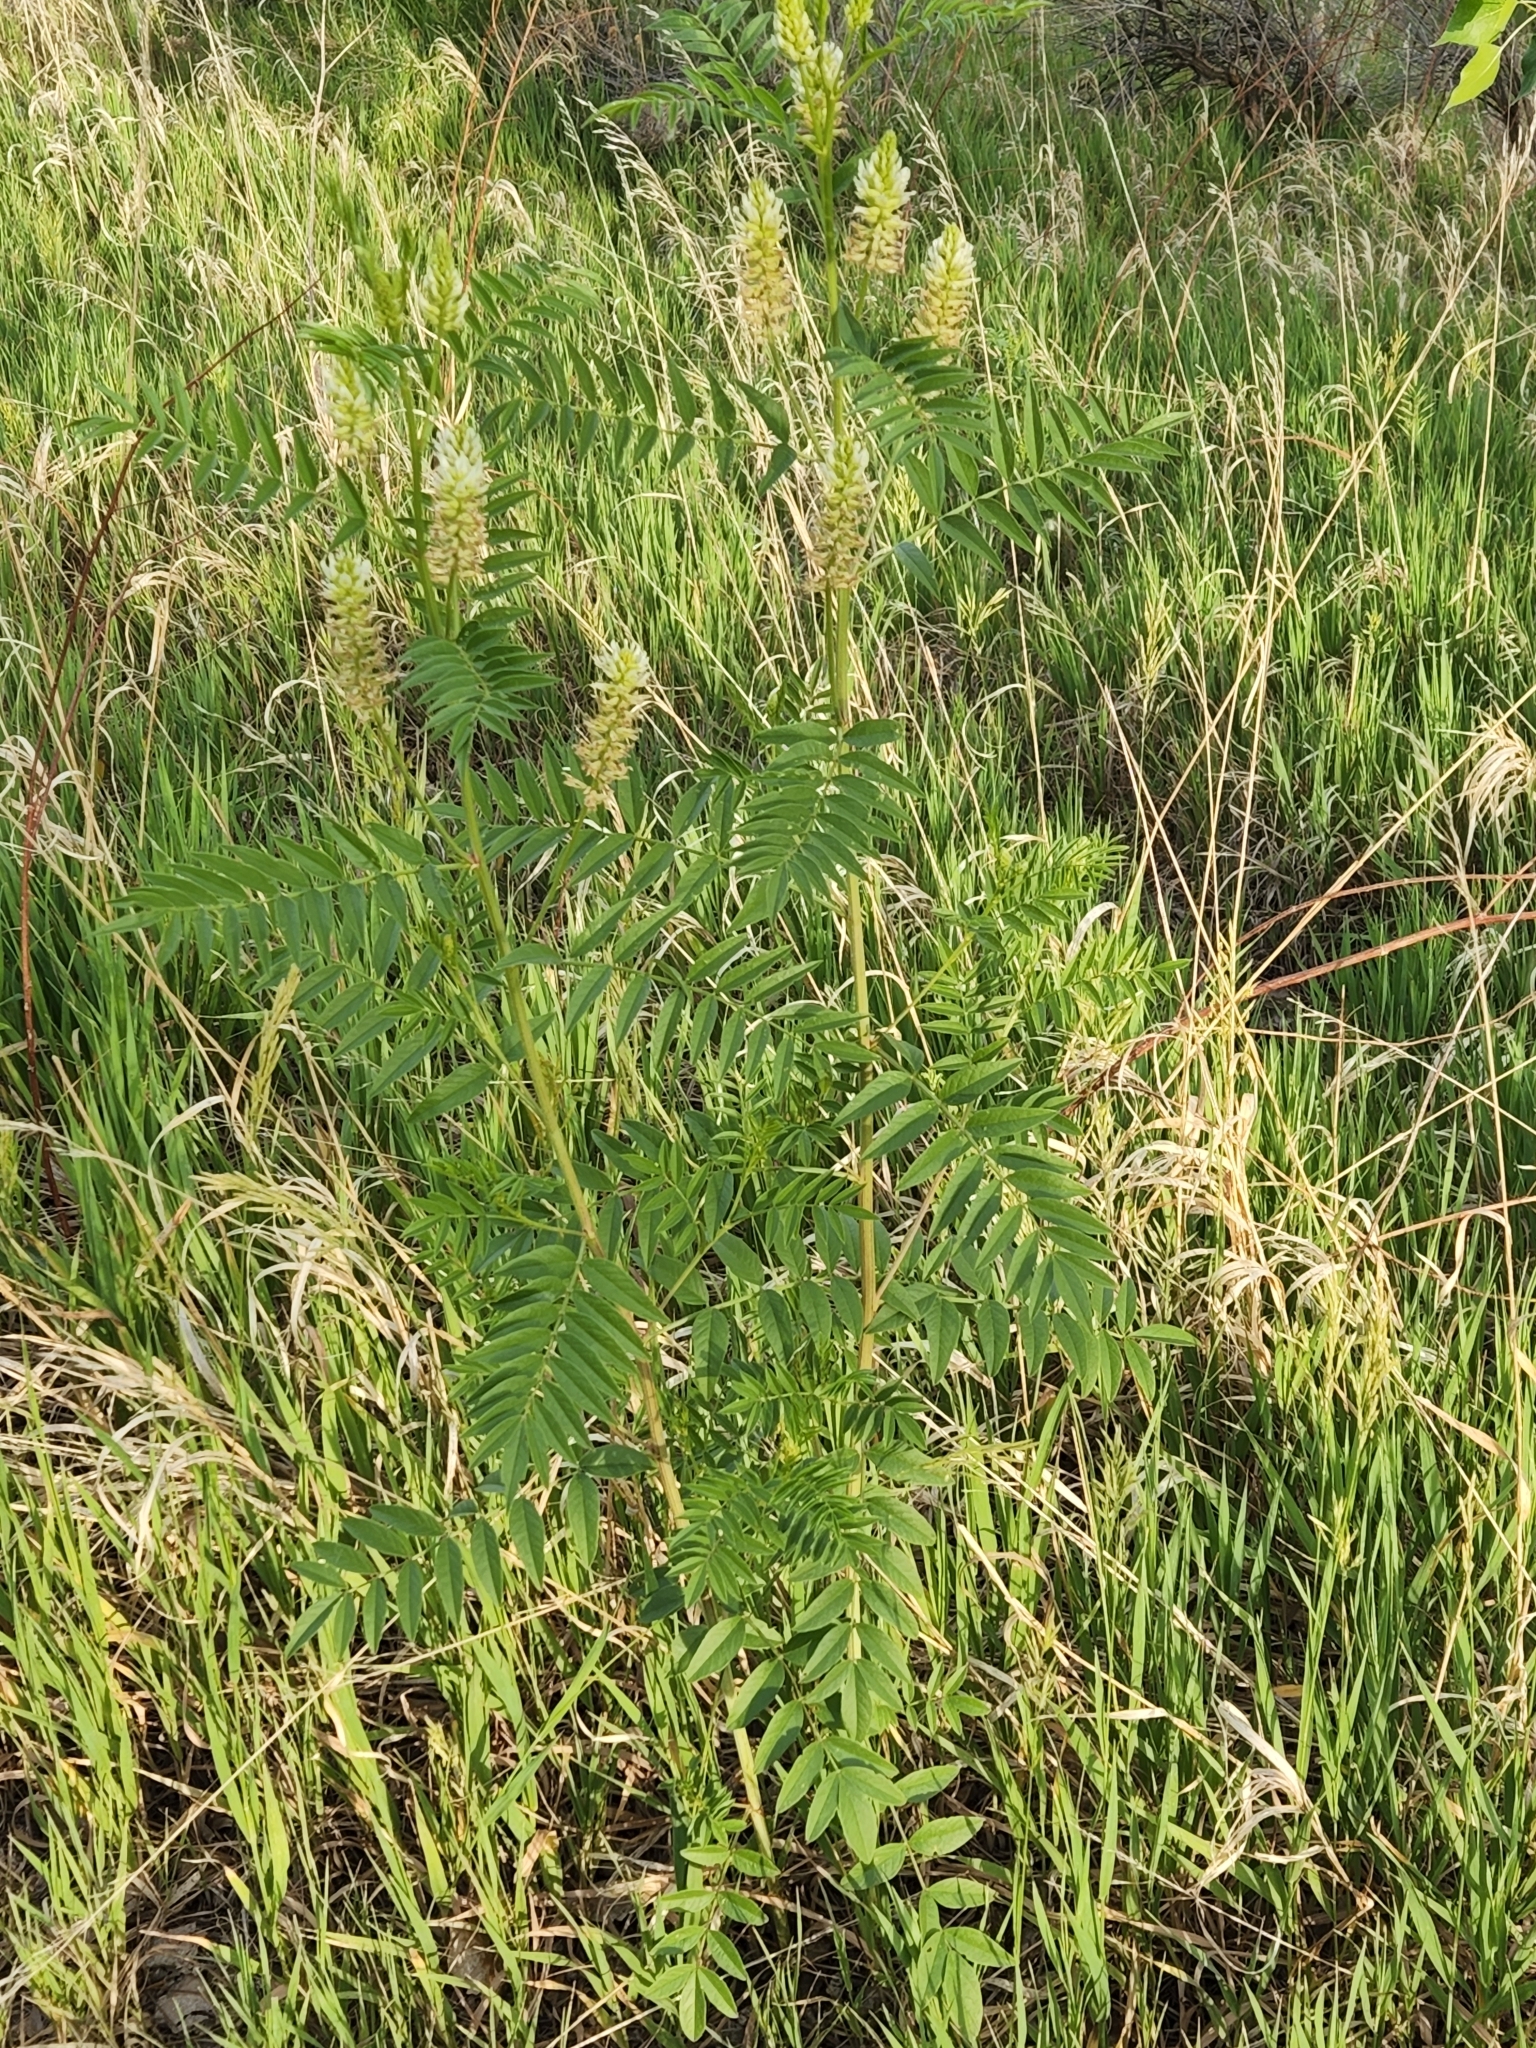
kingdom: Plantae
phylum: Tracheophyta
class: Magnoliopsida
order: Fabales
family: Fabaceae
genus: Glycyrrhiza
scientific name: Glycyrrhiza lepidota
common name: American liquorice
